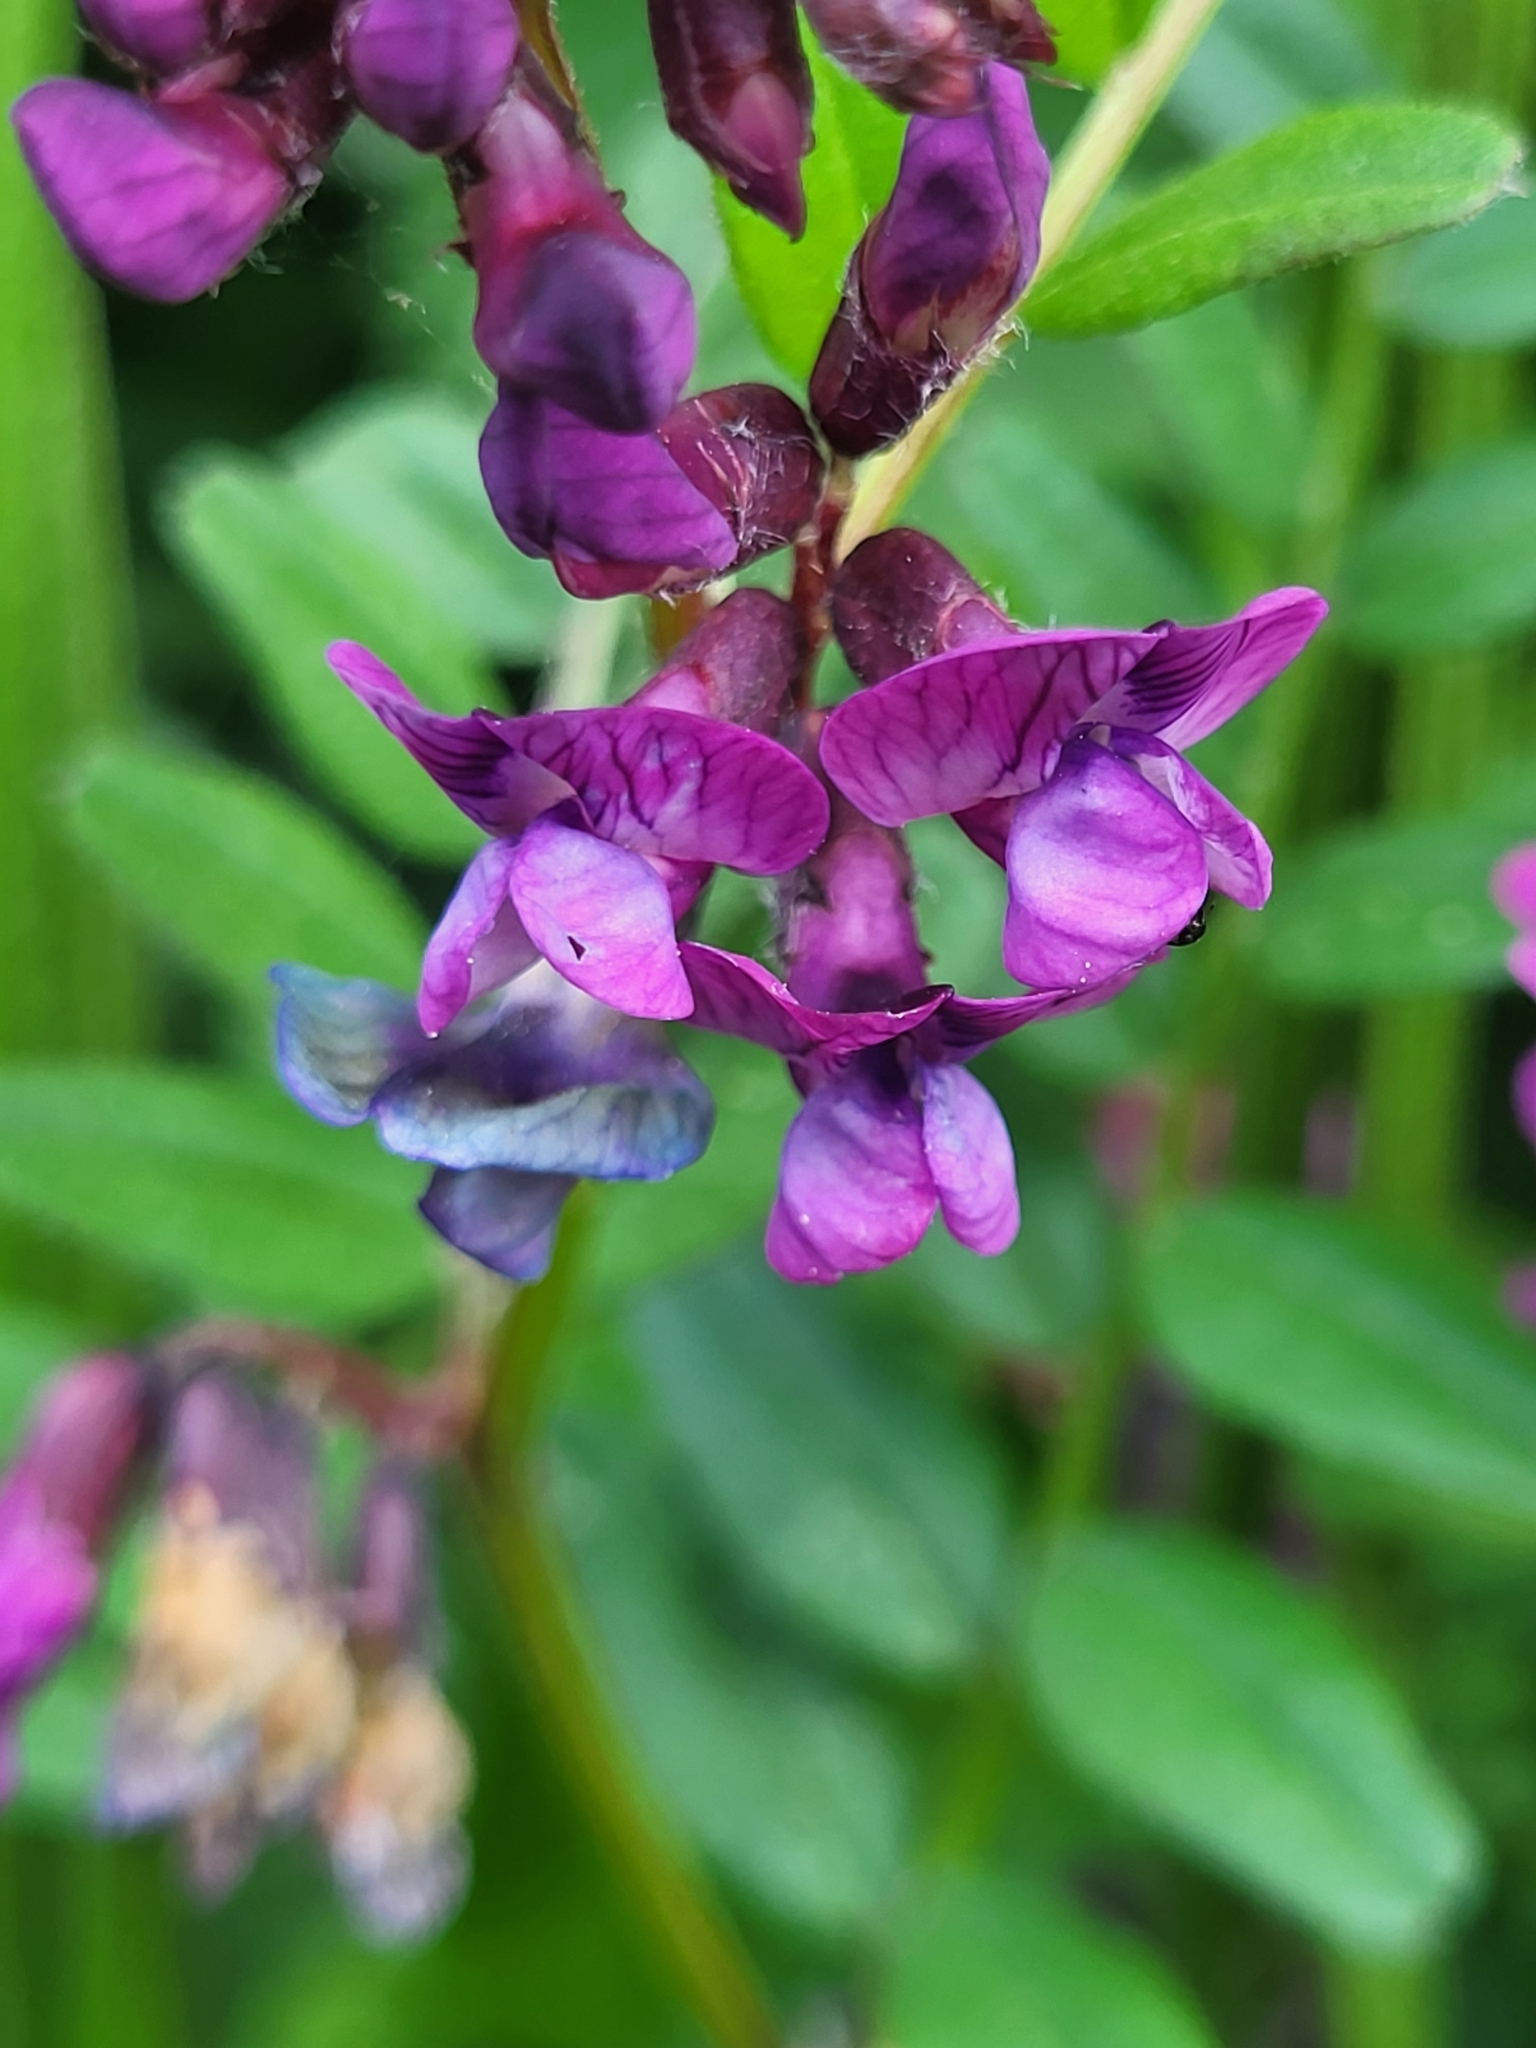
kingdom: Plantae
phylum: Tracheophyta
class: Magnoliopsida
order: Fabales
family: Fabaceae
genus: Vicia
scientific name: Vicia sepium
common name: Bush vetch
